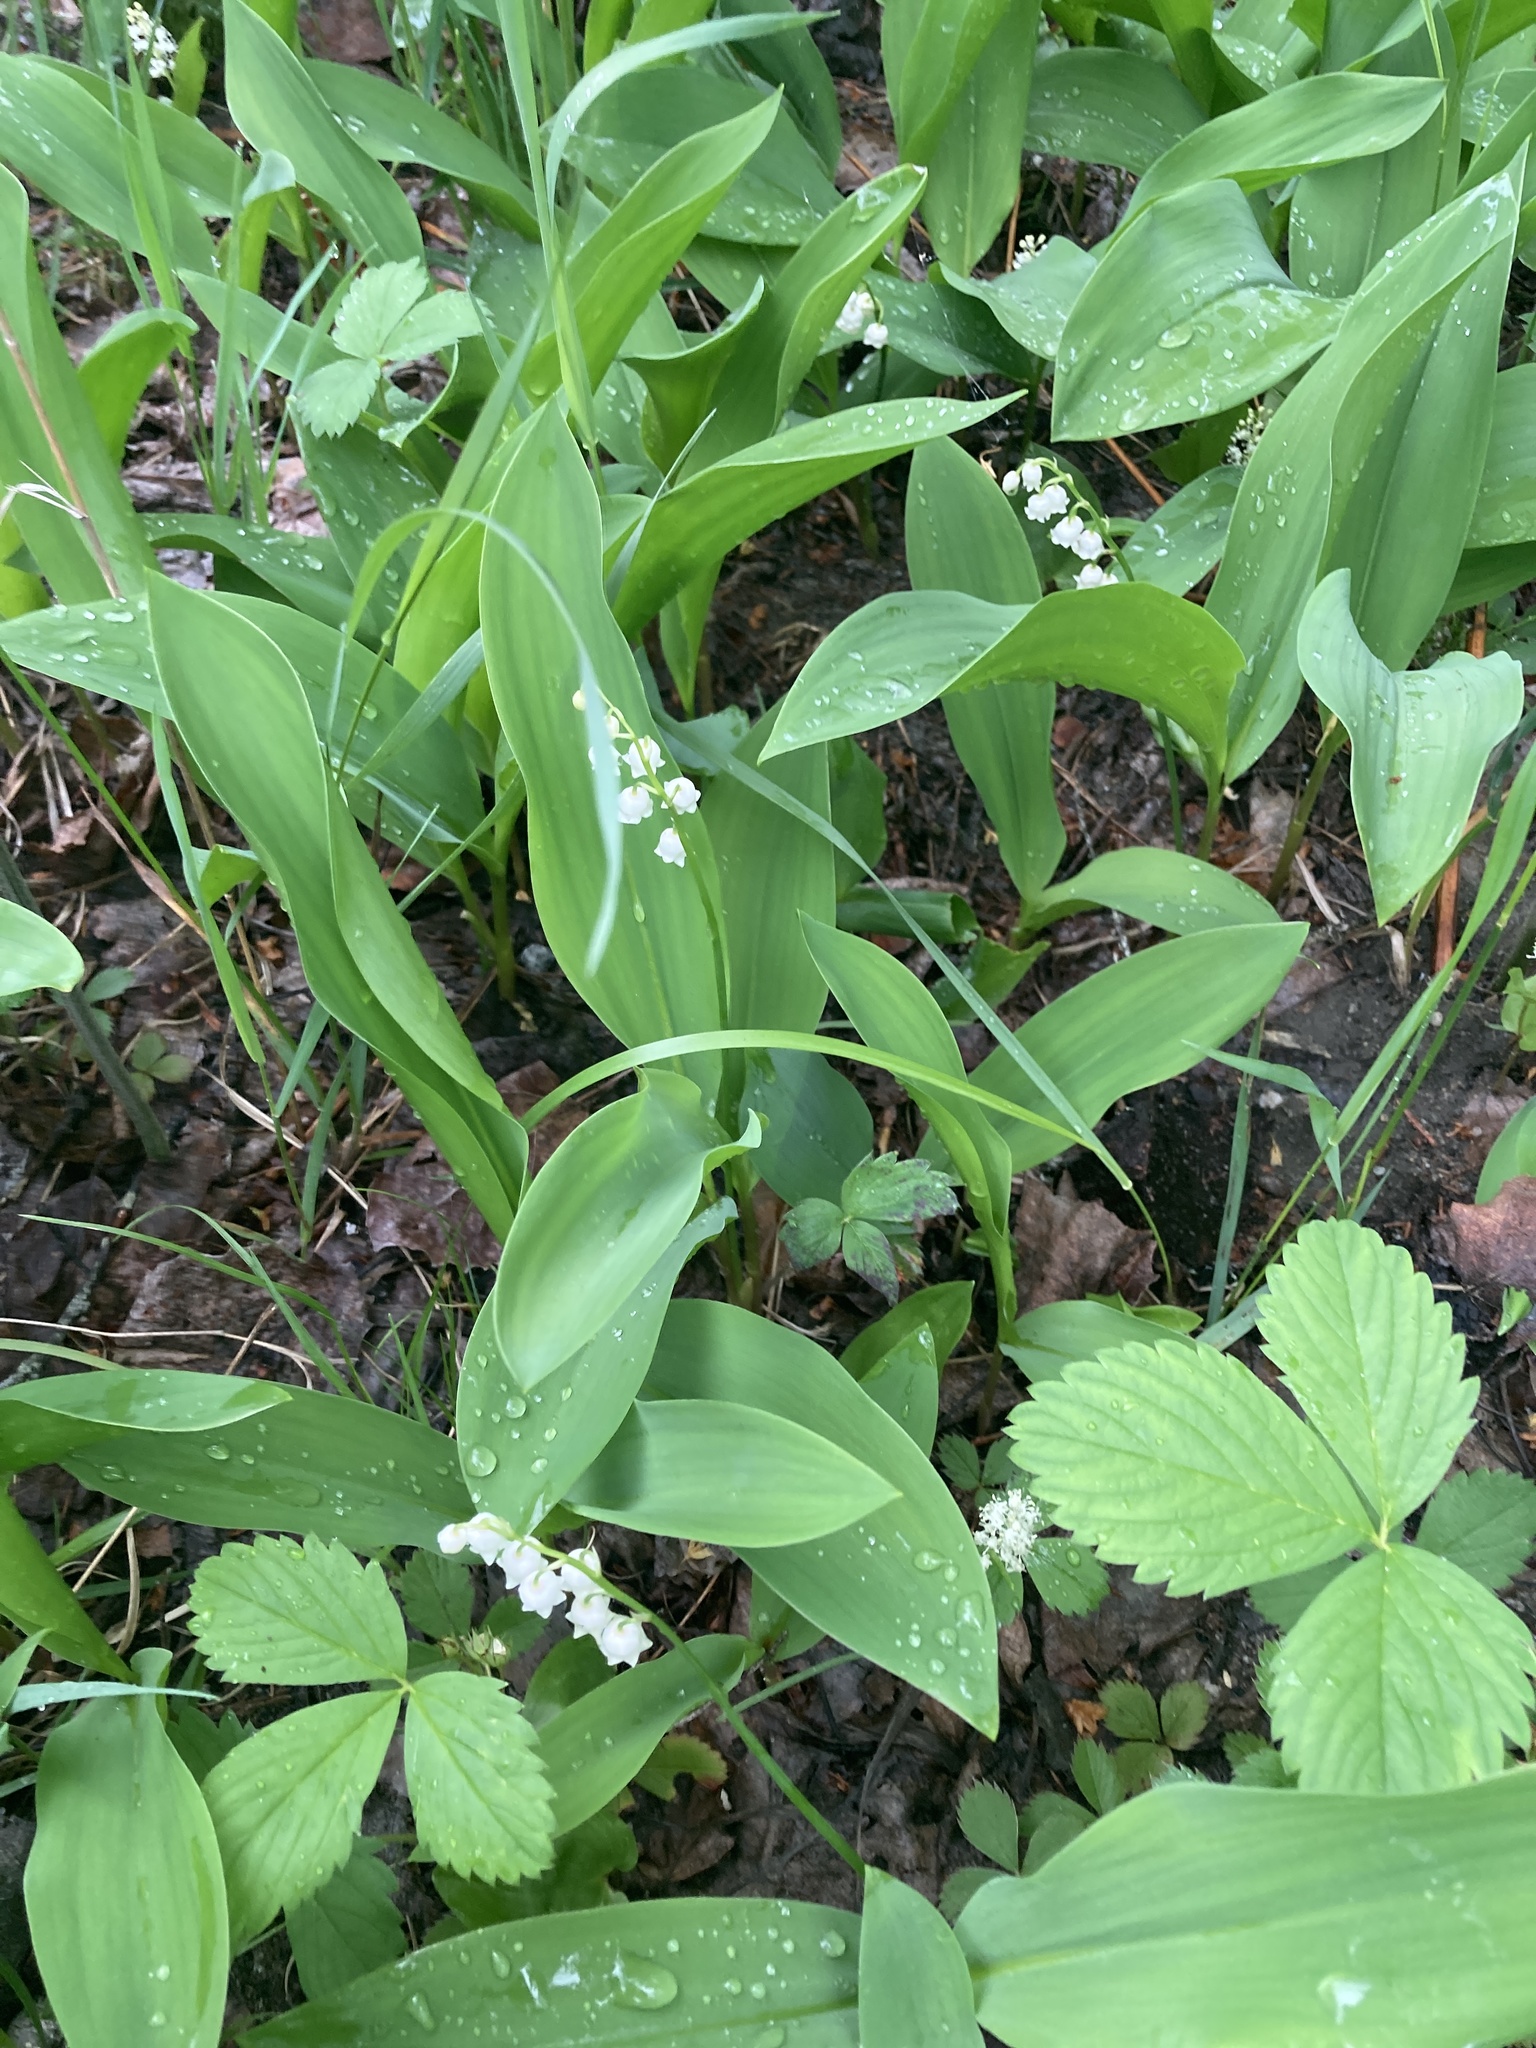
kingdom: Plantae
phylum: Tracheophyta
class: Liliopsida
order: Asparagales
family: Asparagaceae
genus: Convallaria
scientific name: Convallaria majalis
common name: Lily-of-the-valley
